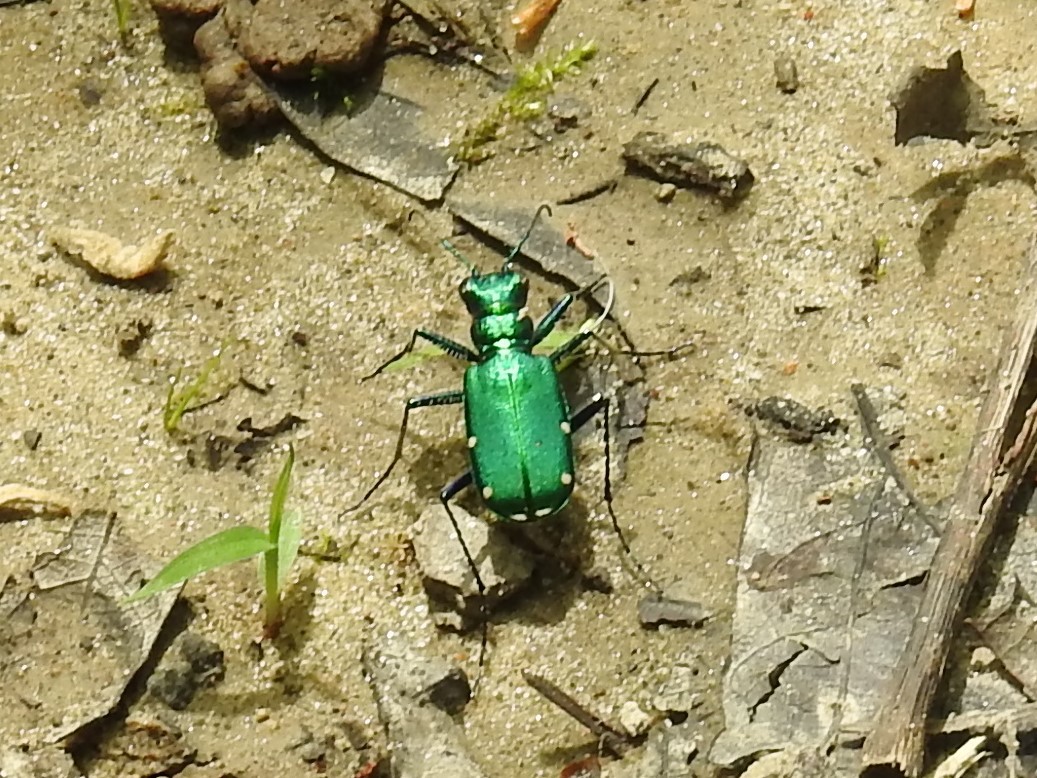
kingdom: Animalia
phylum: Arthropoda
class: Insecta
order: Coleoptera
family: Carabidae
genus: Cicindela
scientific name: Cicindela sexguttata
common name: Six-spotted tiger beetle
